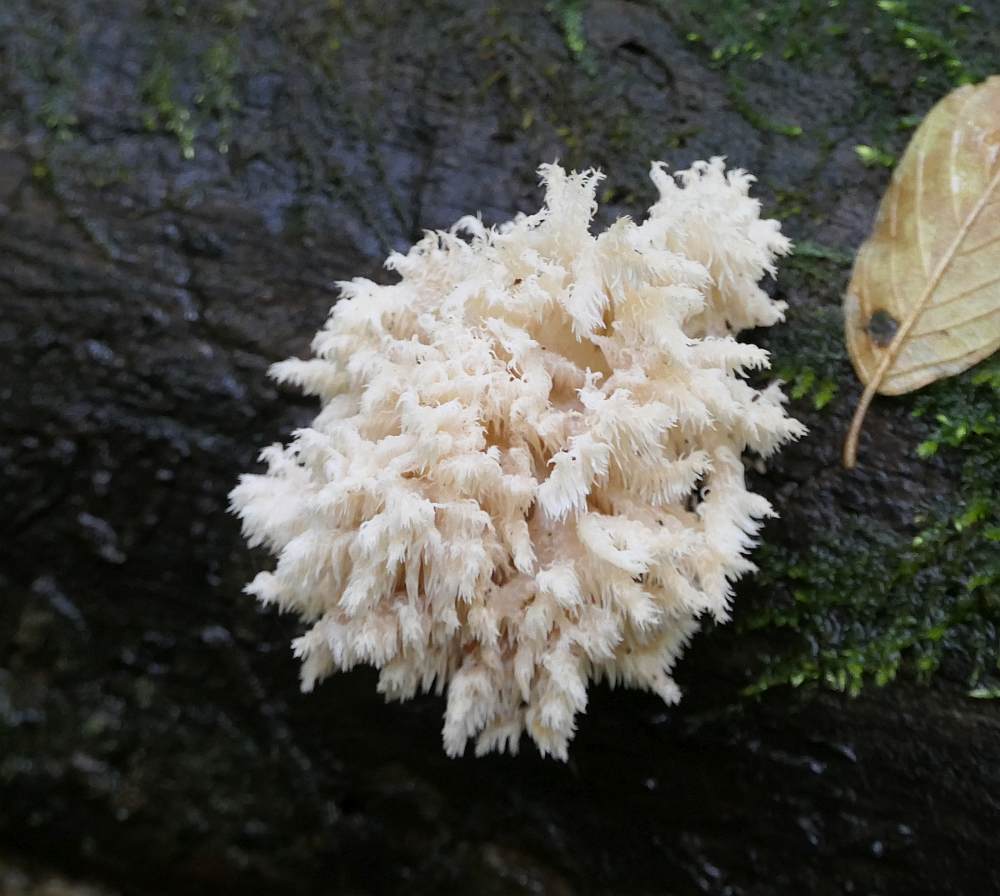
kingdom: Fungi
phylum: Basidiomycota
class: Agaricomycetes
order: Russulales
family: Hericiaceae
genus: Hericium
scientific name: Hericium coralloides
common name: Coral tooth
